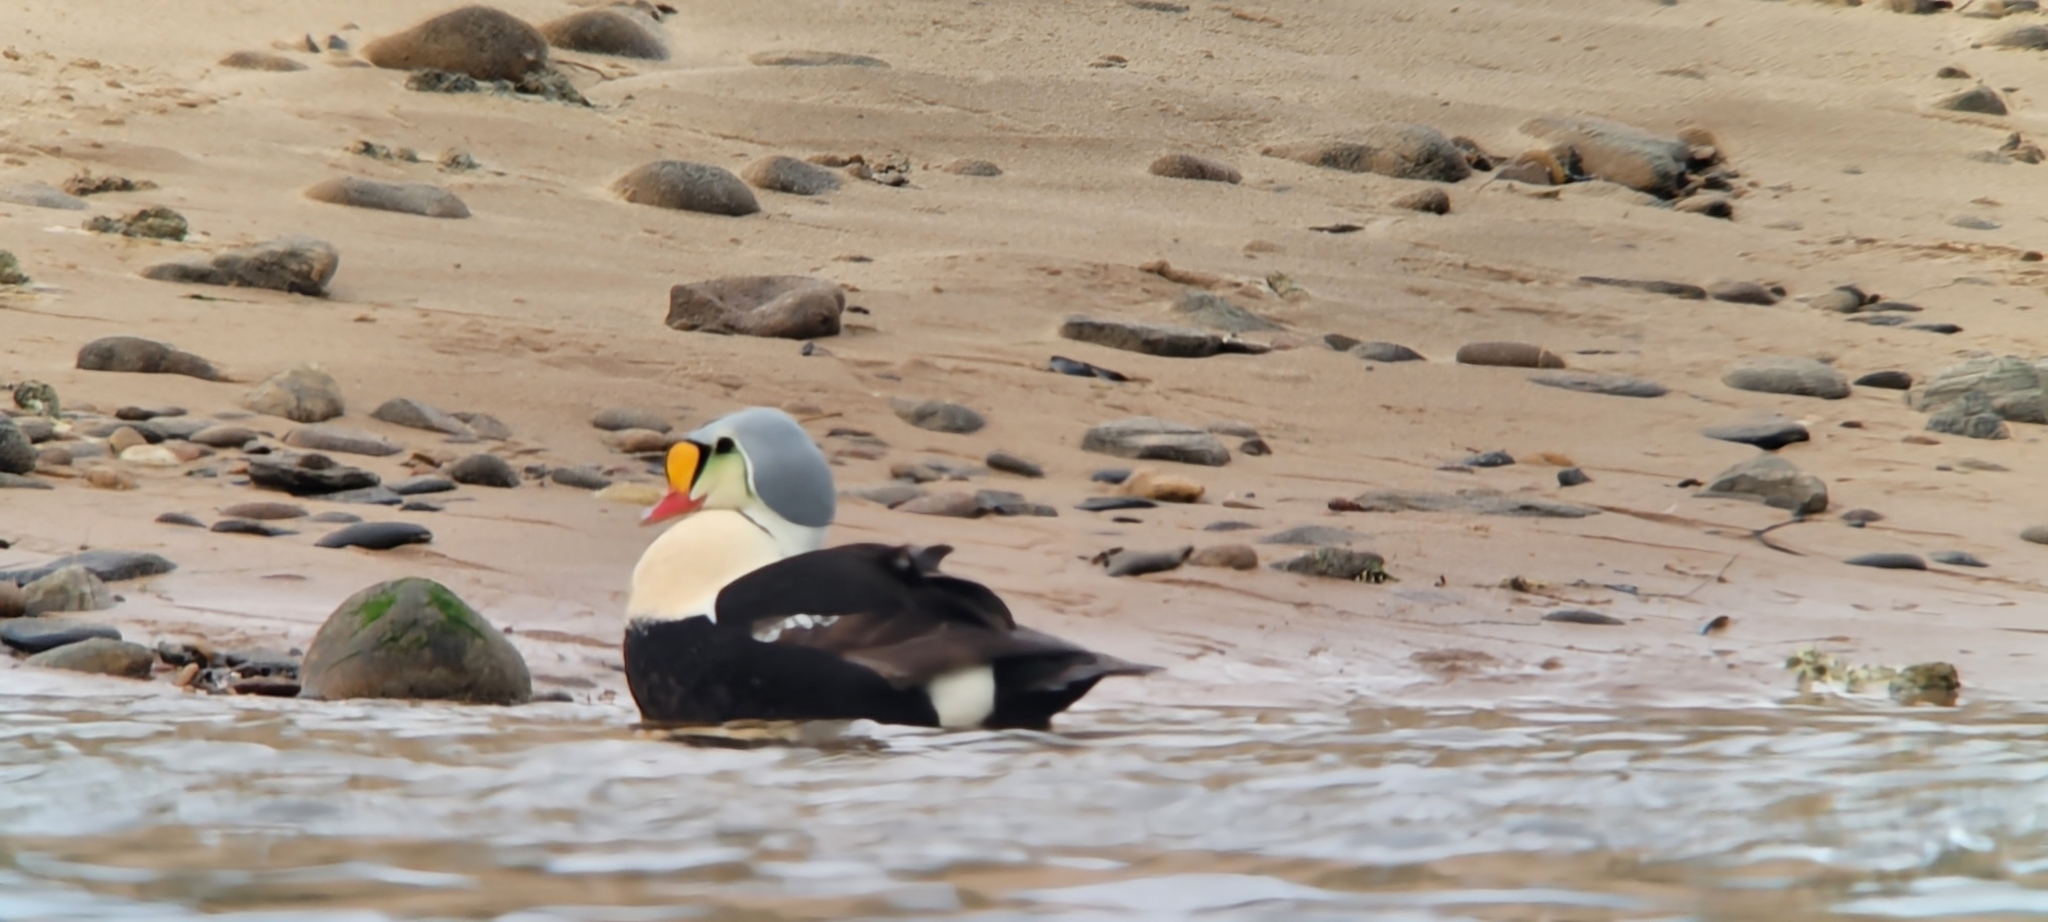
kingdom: Animalia
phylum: Chordata
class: Aves
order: Anseriformes
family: Anatidae
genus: Somateria
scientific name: Somateria spectabilis
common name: King eider
